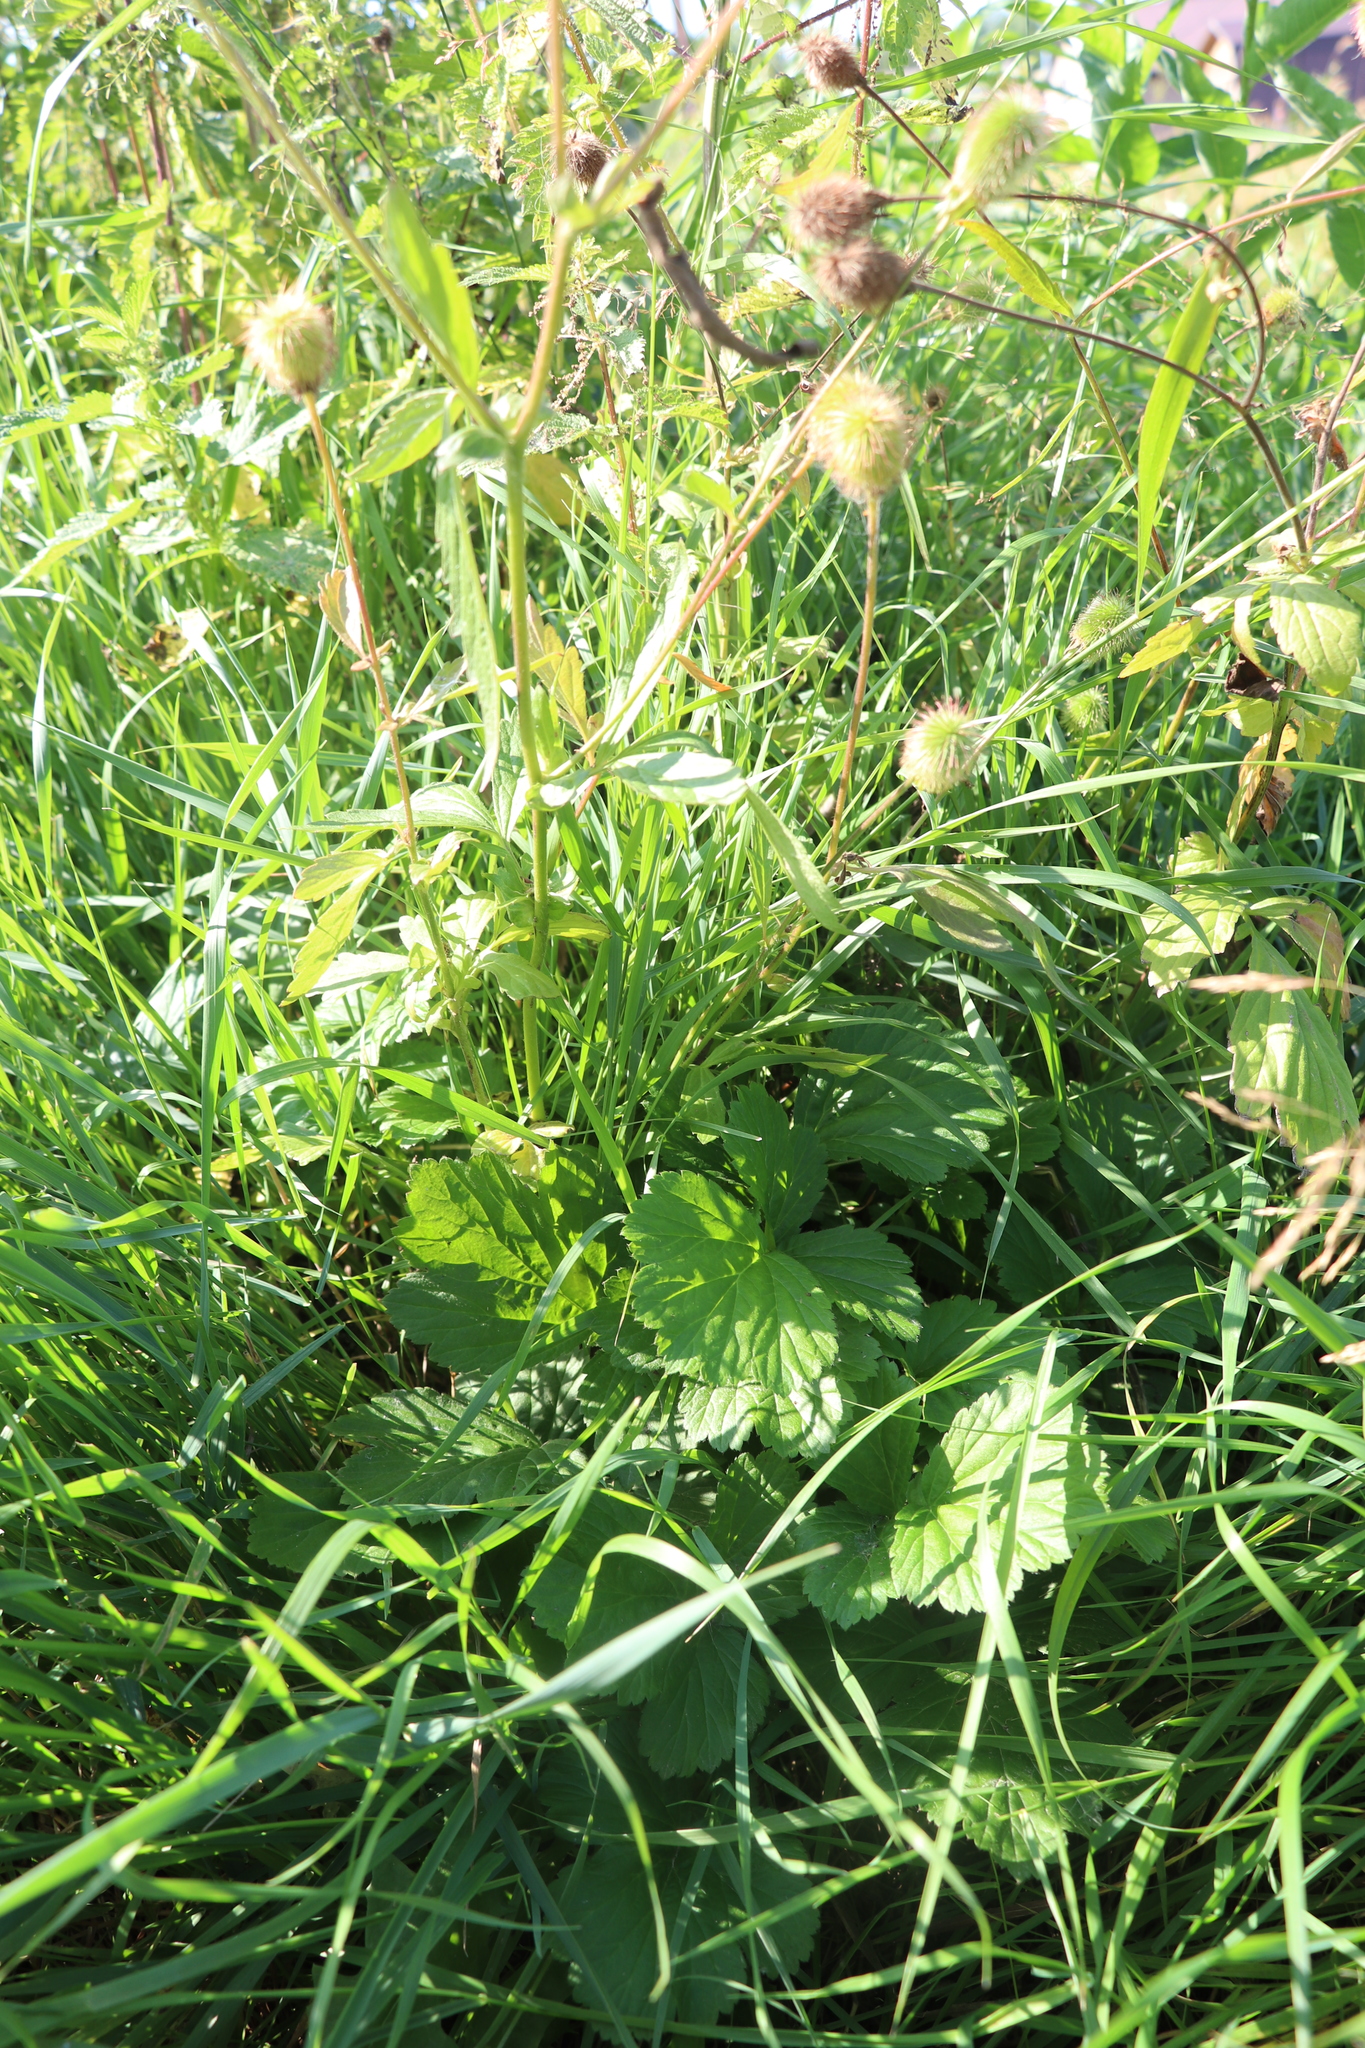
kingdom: Plantae
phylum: Tracheophyta
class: Magnoliopsida
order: Rosales
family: Rosaceae
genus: Geum
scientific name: Geum aleppicum
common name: Yellow avens
